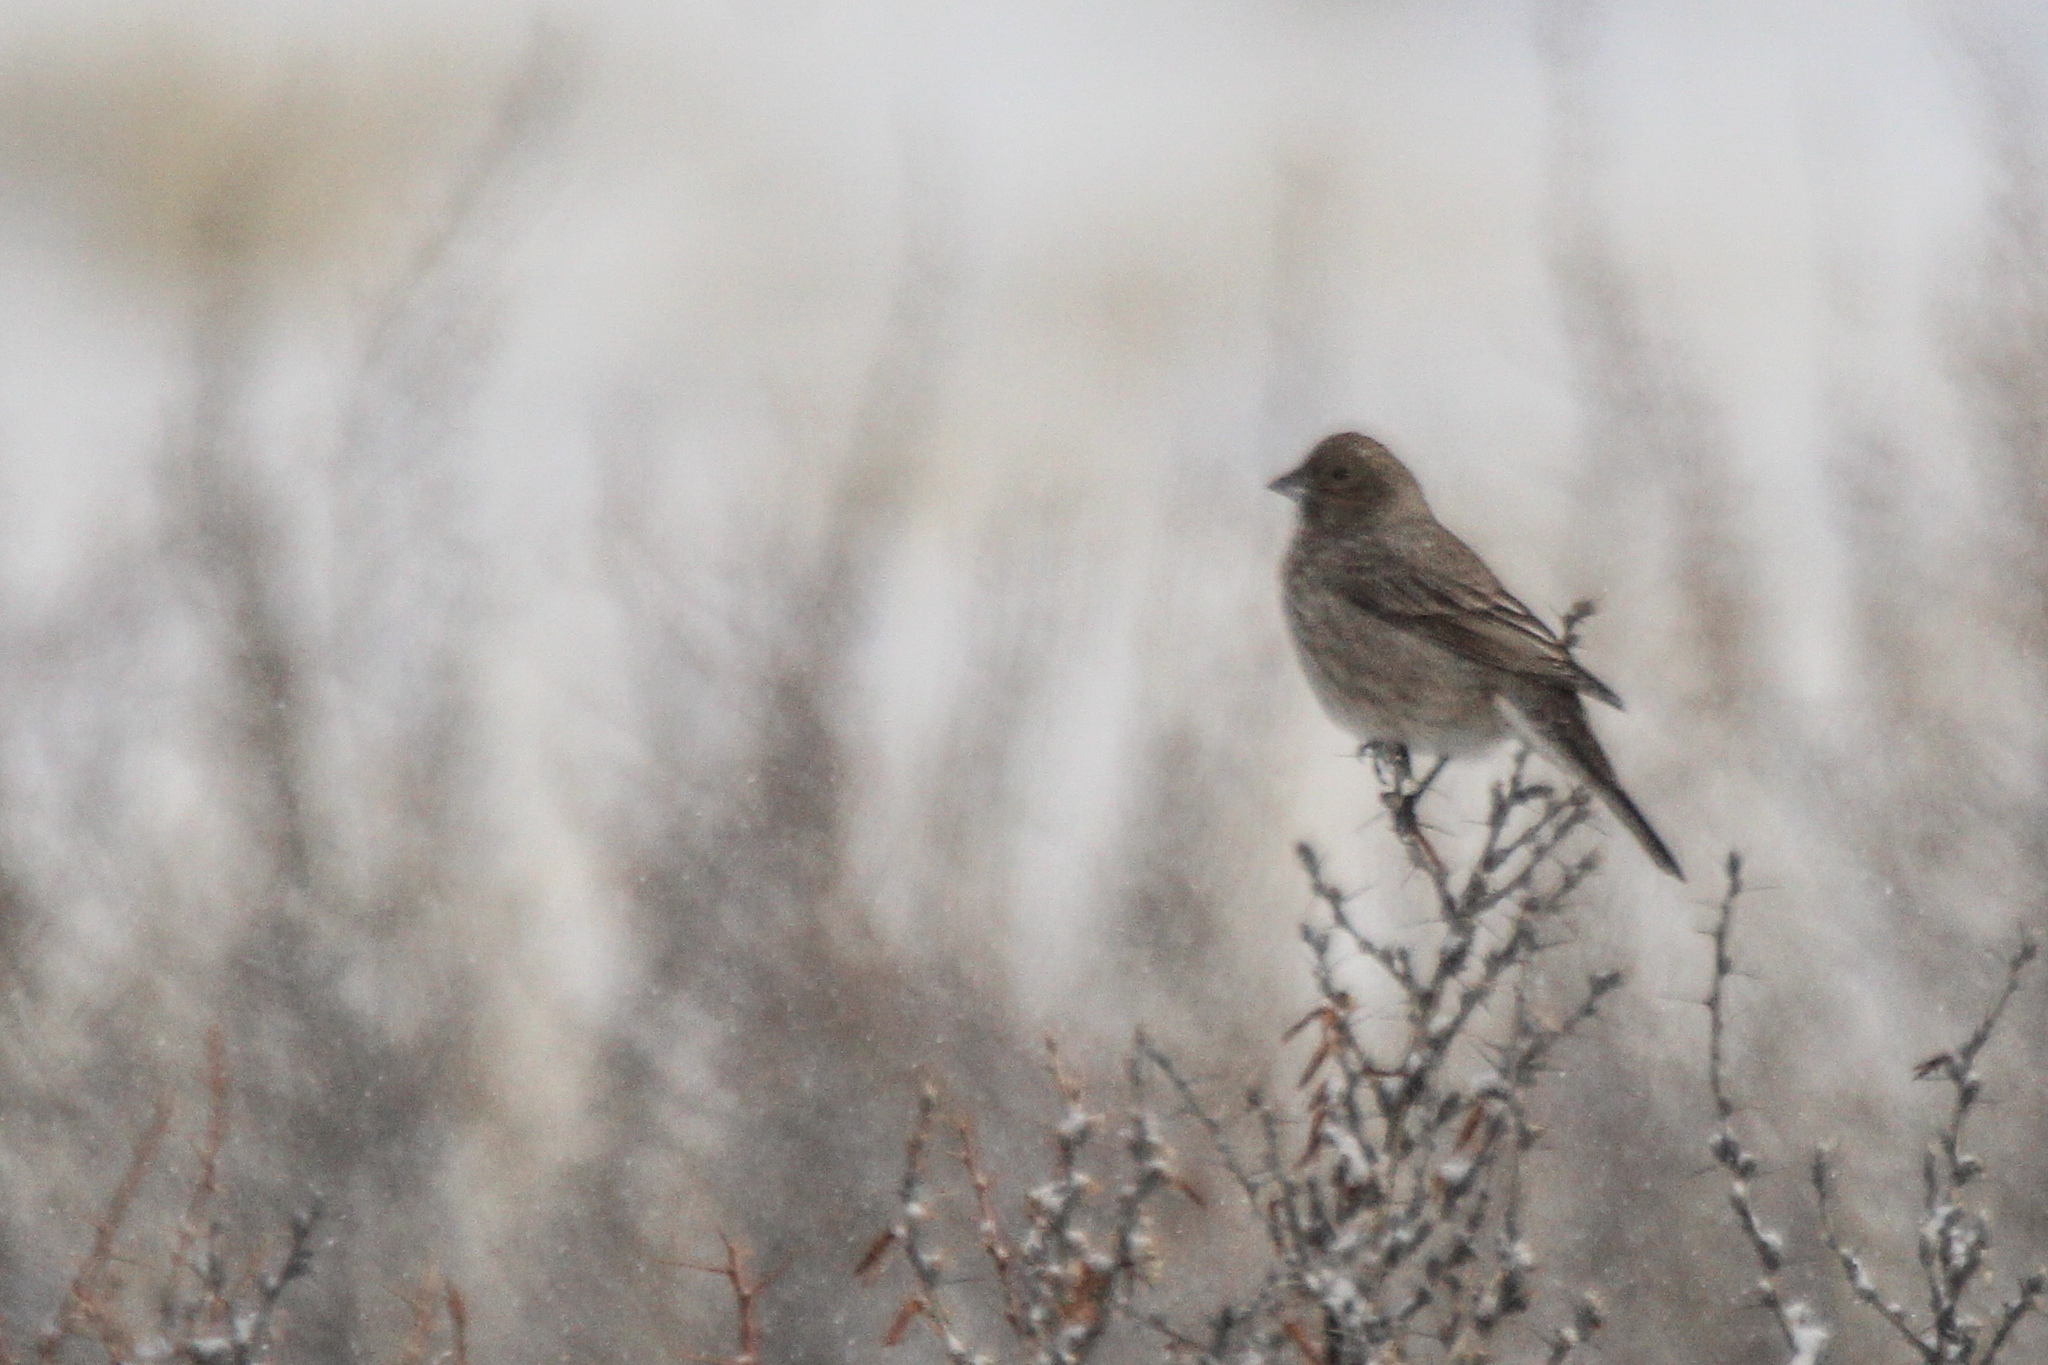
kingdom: Animalia
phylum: Chordata
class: Aves
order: Passeriformes
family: Fringillidae
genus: Carpodacus
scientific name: Carpodacus rubicilla
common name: Great rosefinch
